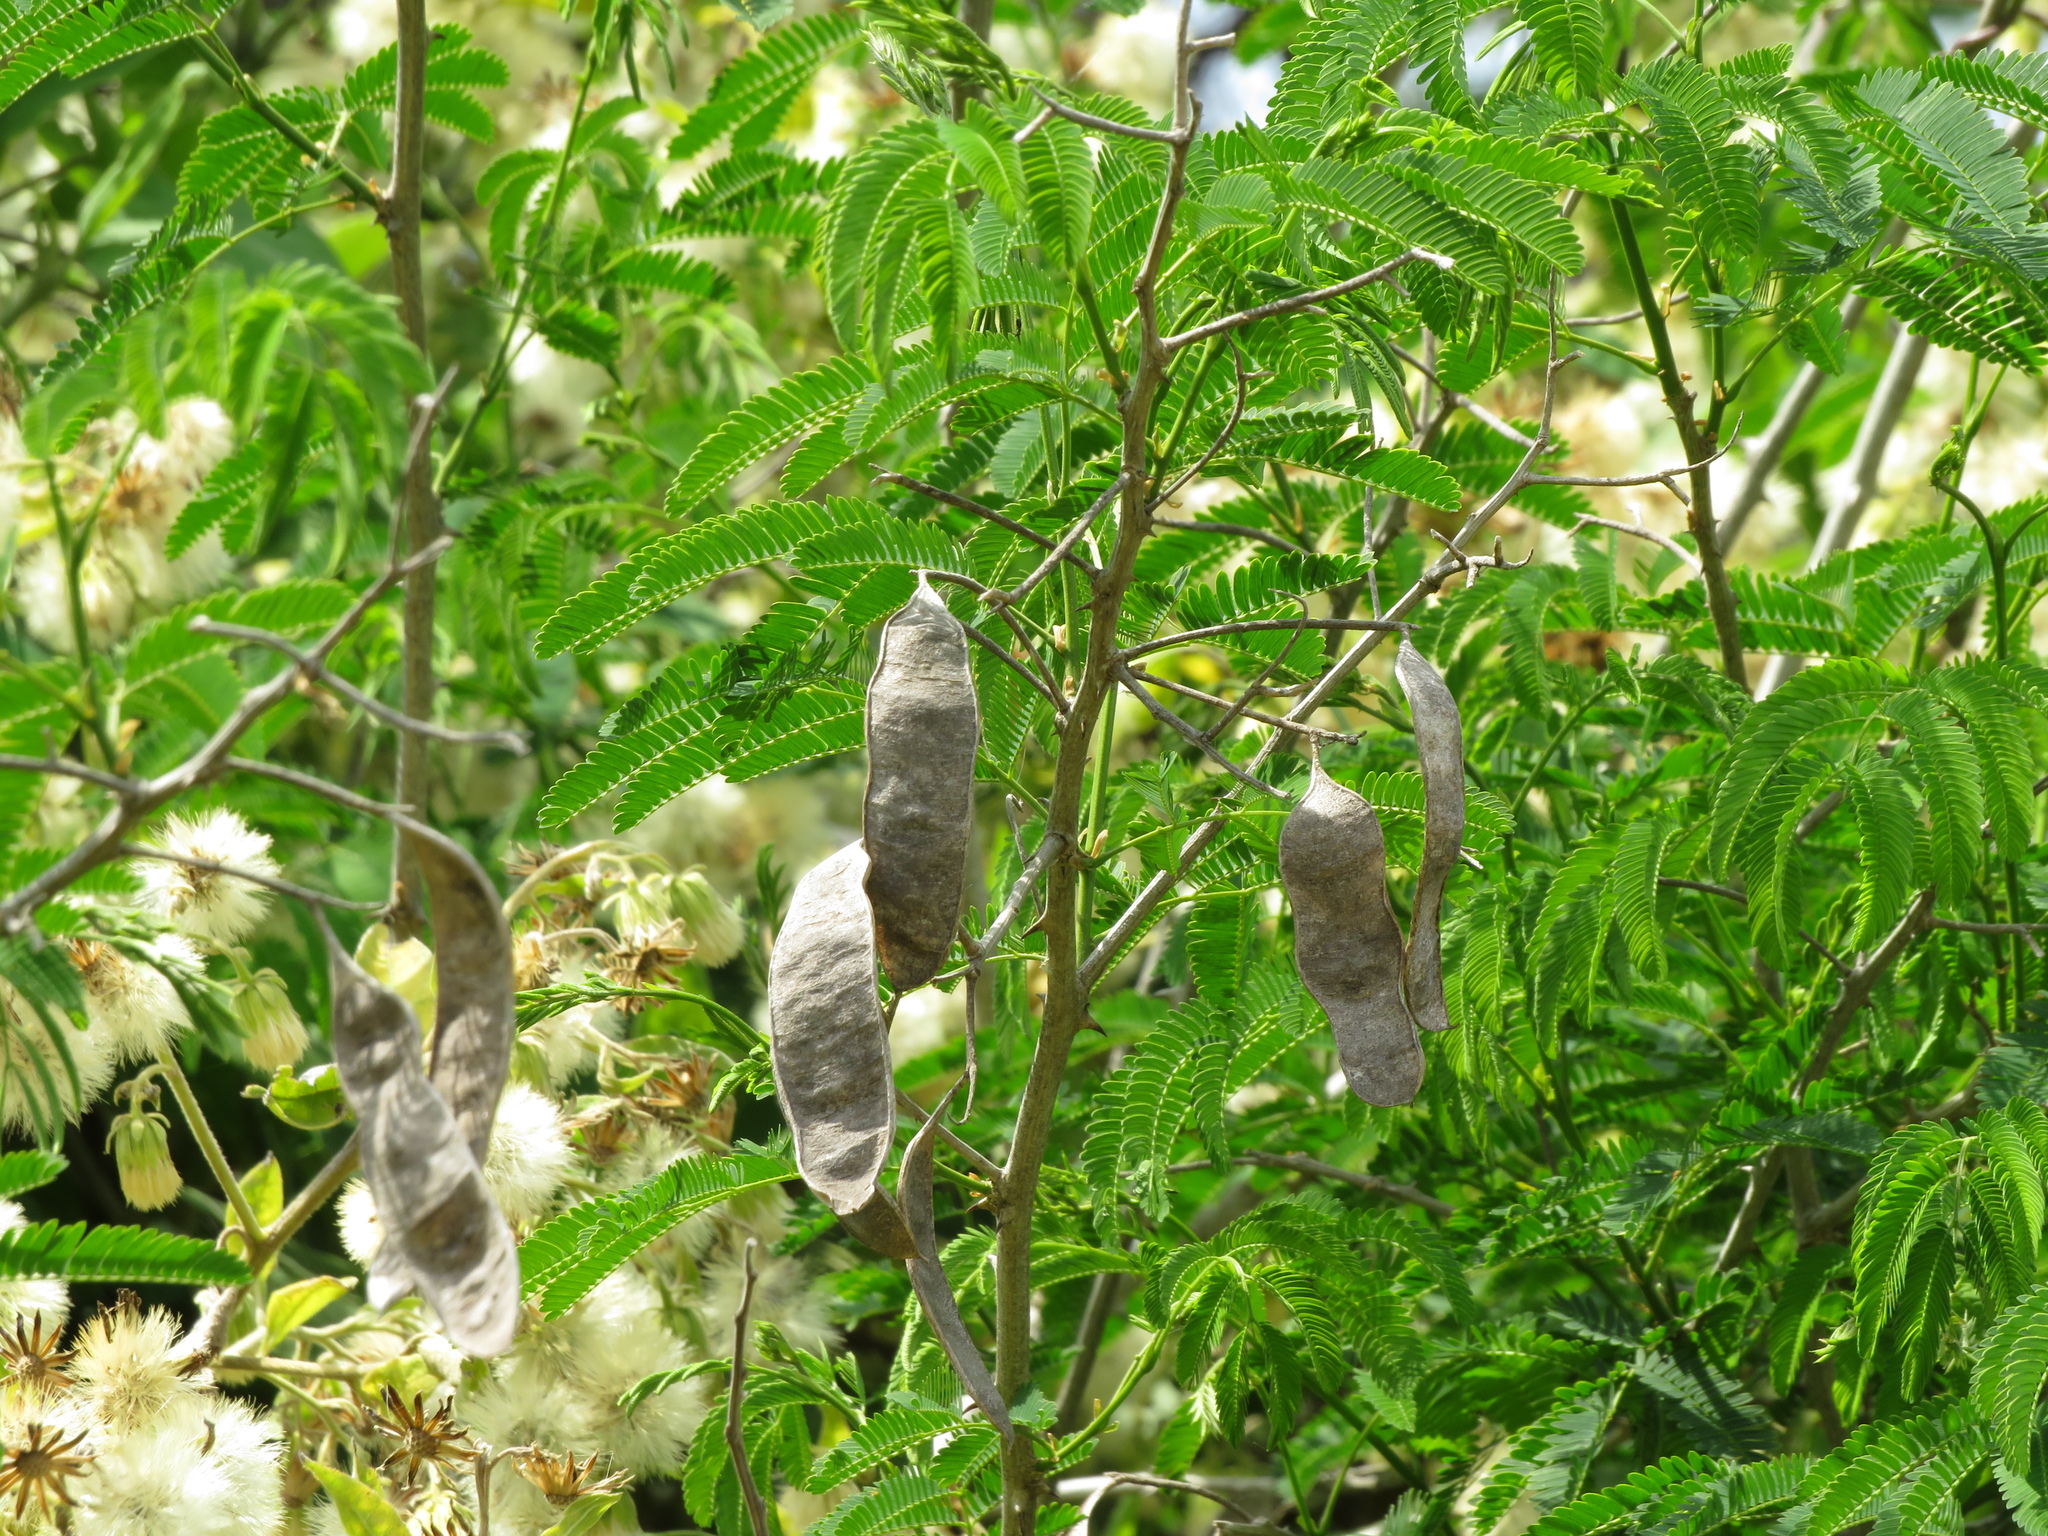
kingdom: Plantae
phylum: Tracheophyta
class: Magnoliopsida
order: Fabales
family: Fabaceae
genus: Senegalia
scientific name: Senegalia bonariensis
